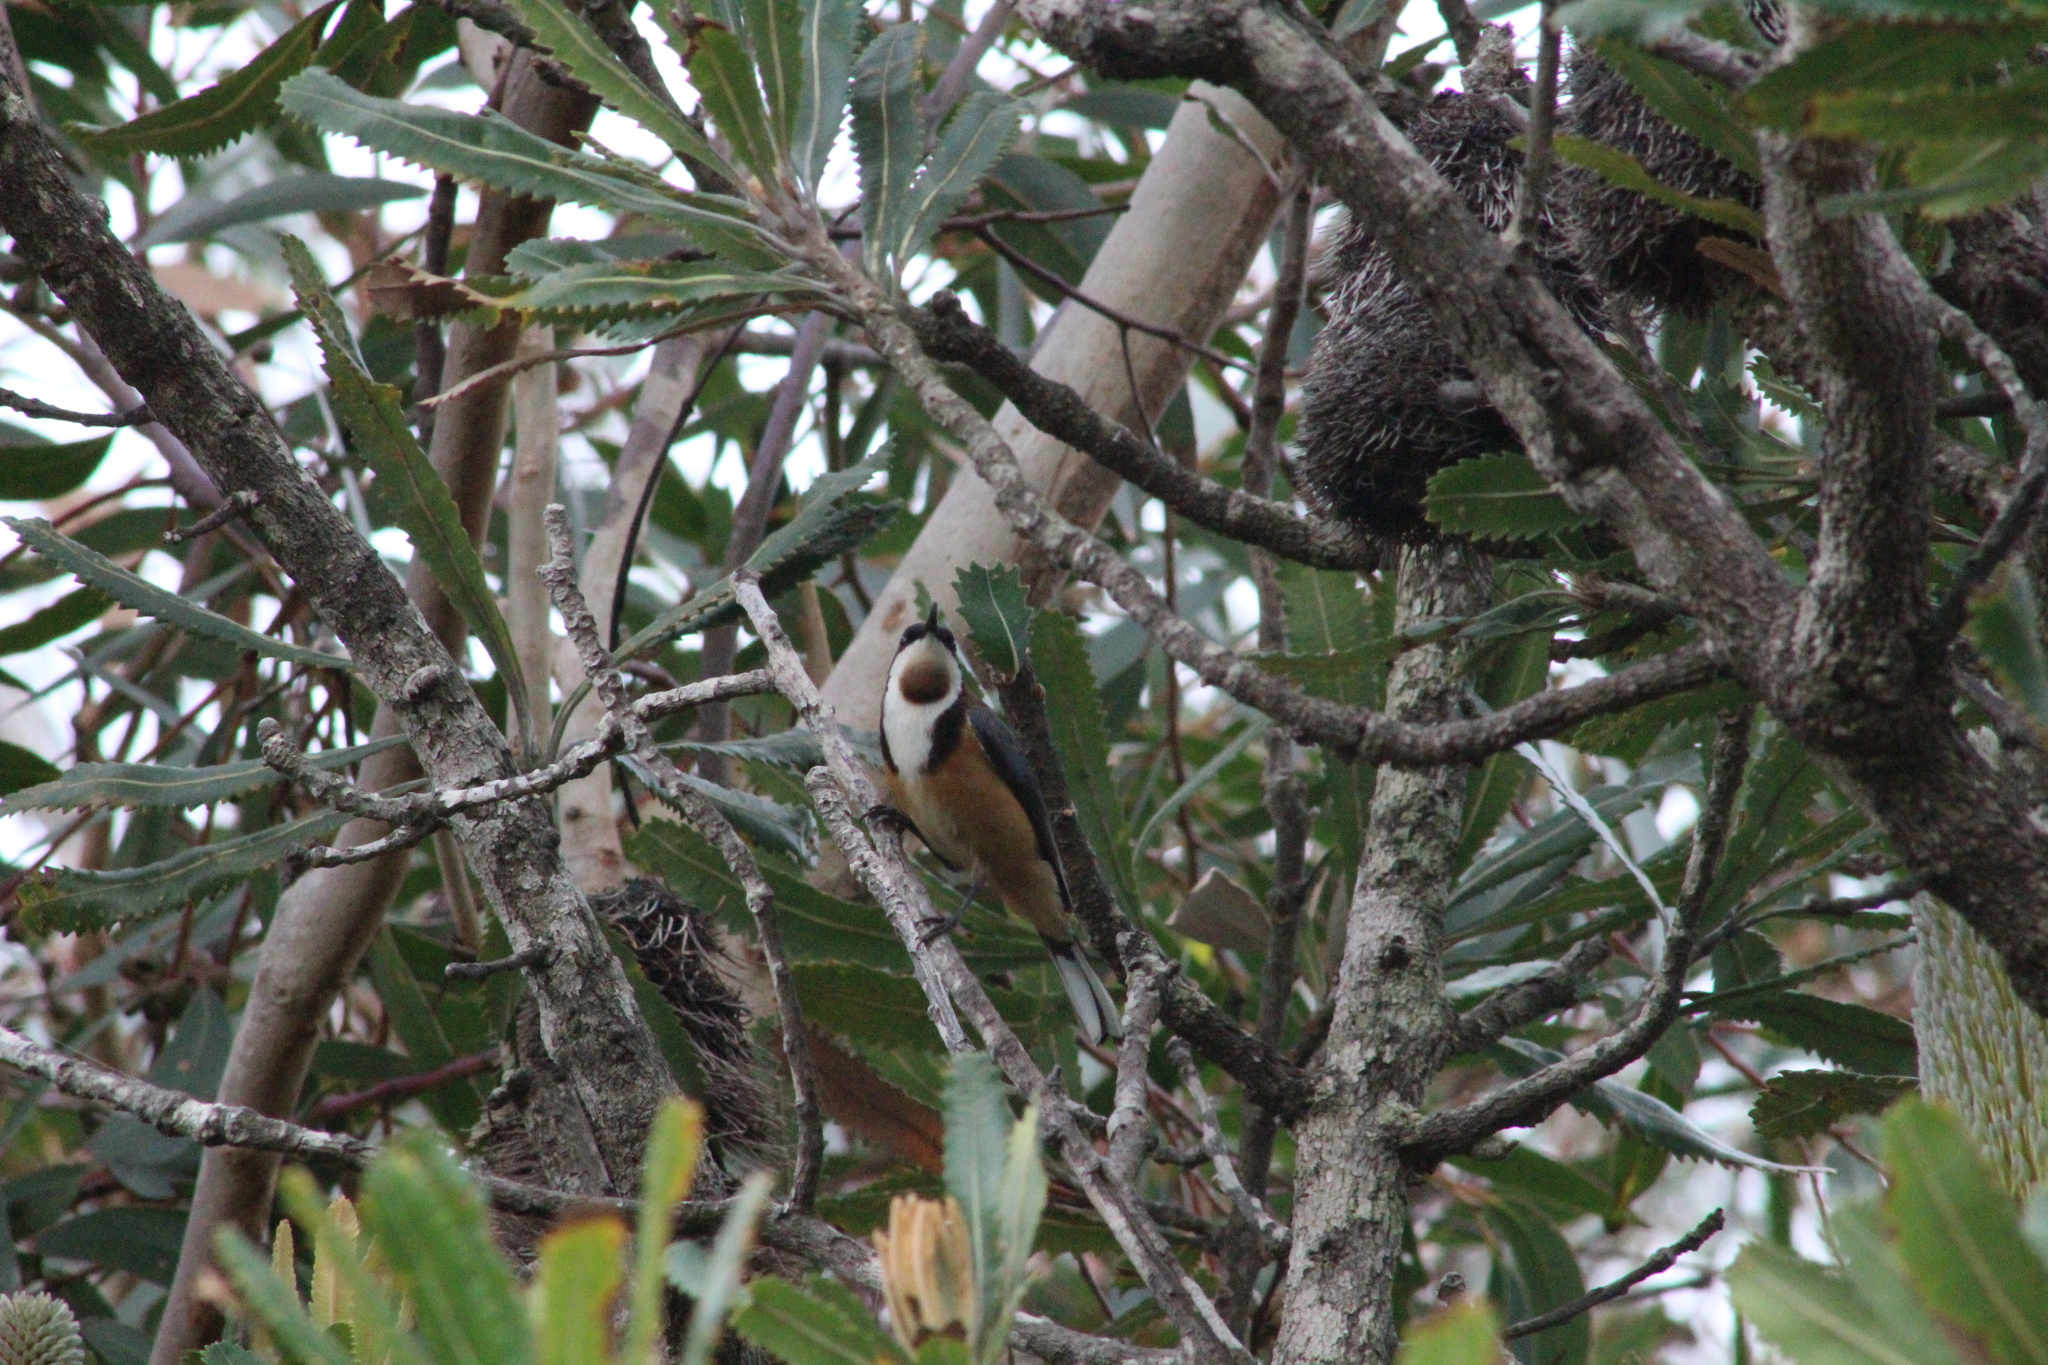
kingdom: Animalia
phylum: Chordata
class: Aves
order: Passeriformes
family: Meliphagidae
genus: Acanthorhynchus
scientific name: Acanthorhynchus tenuirostris
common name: Eastern spinebill
